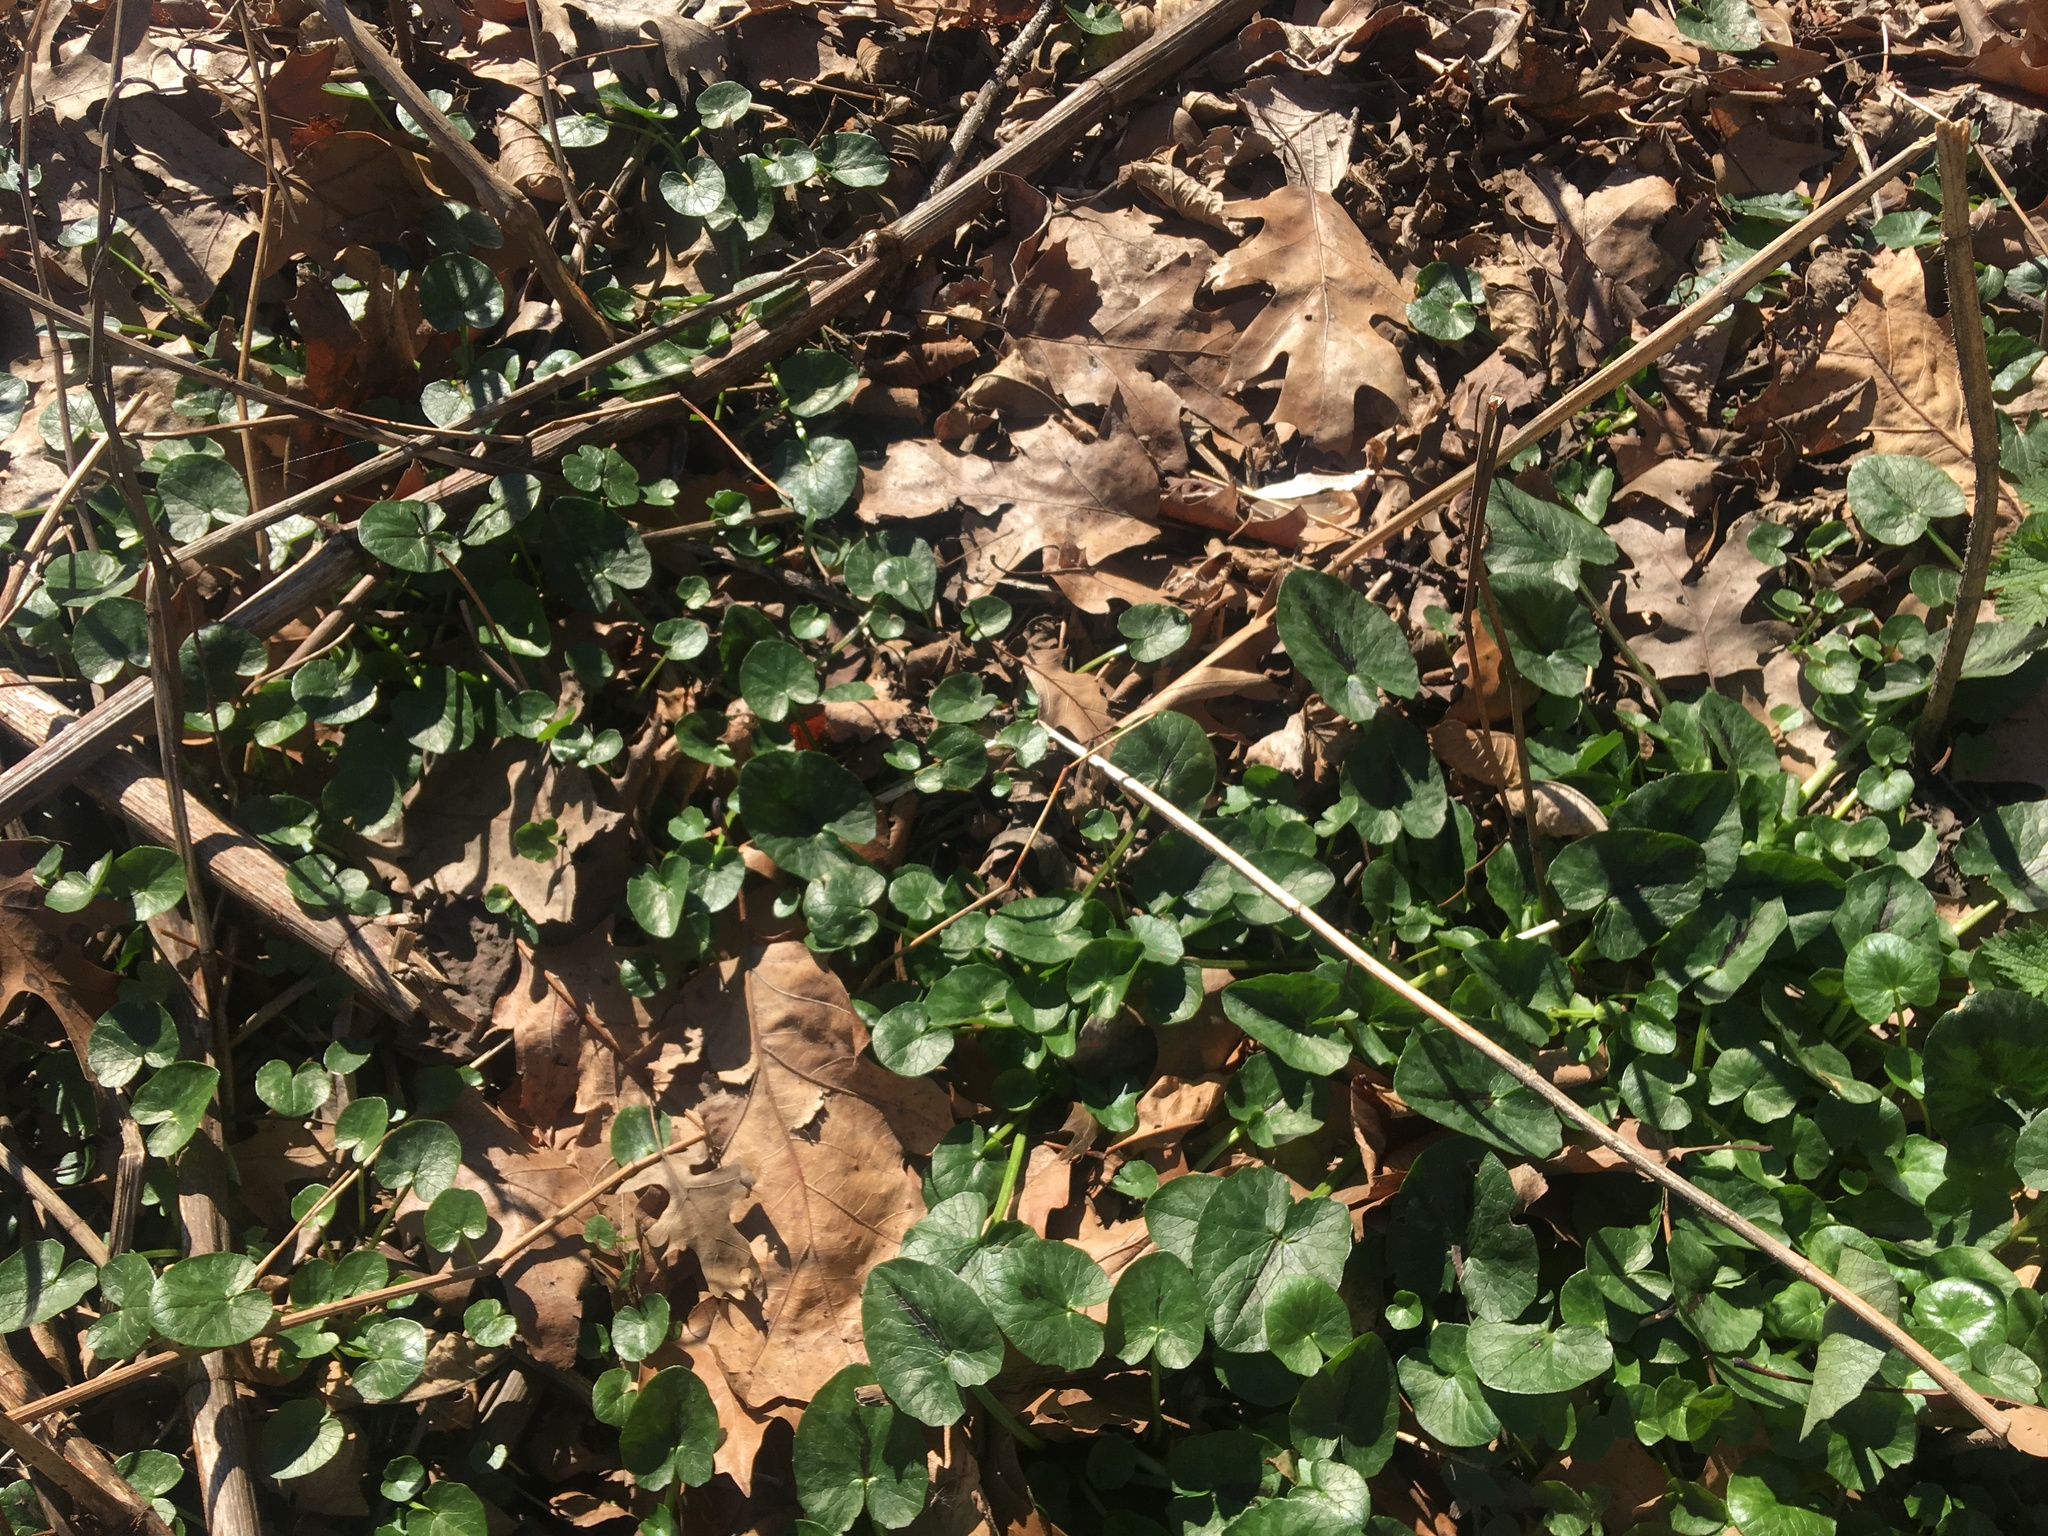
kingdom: Plantae
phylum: Tracheophyta
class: Magnoliopsida
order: Ranunculales
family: Ranunculaceae
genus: Ficaria
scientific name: Ficaria verna
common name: Lesser celandine
